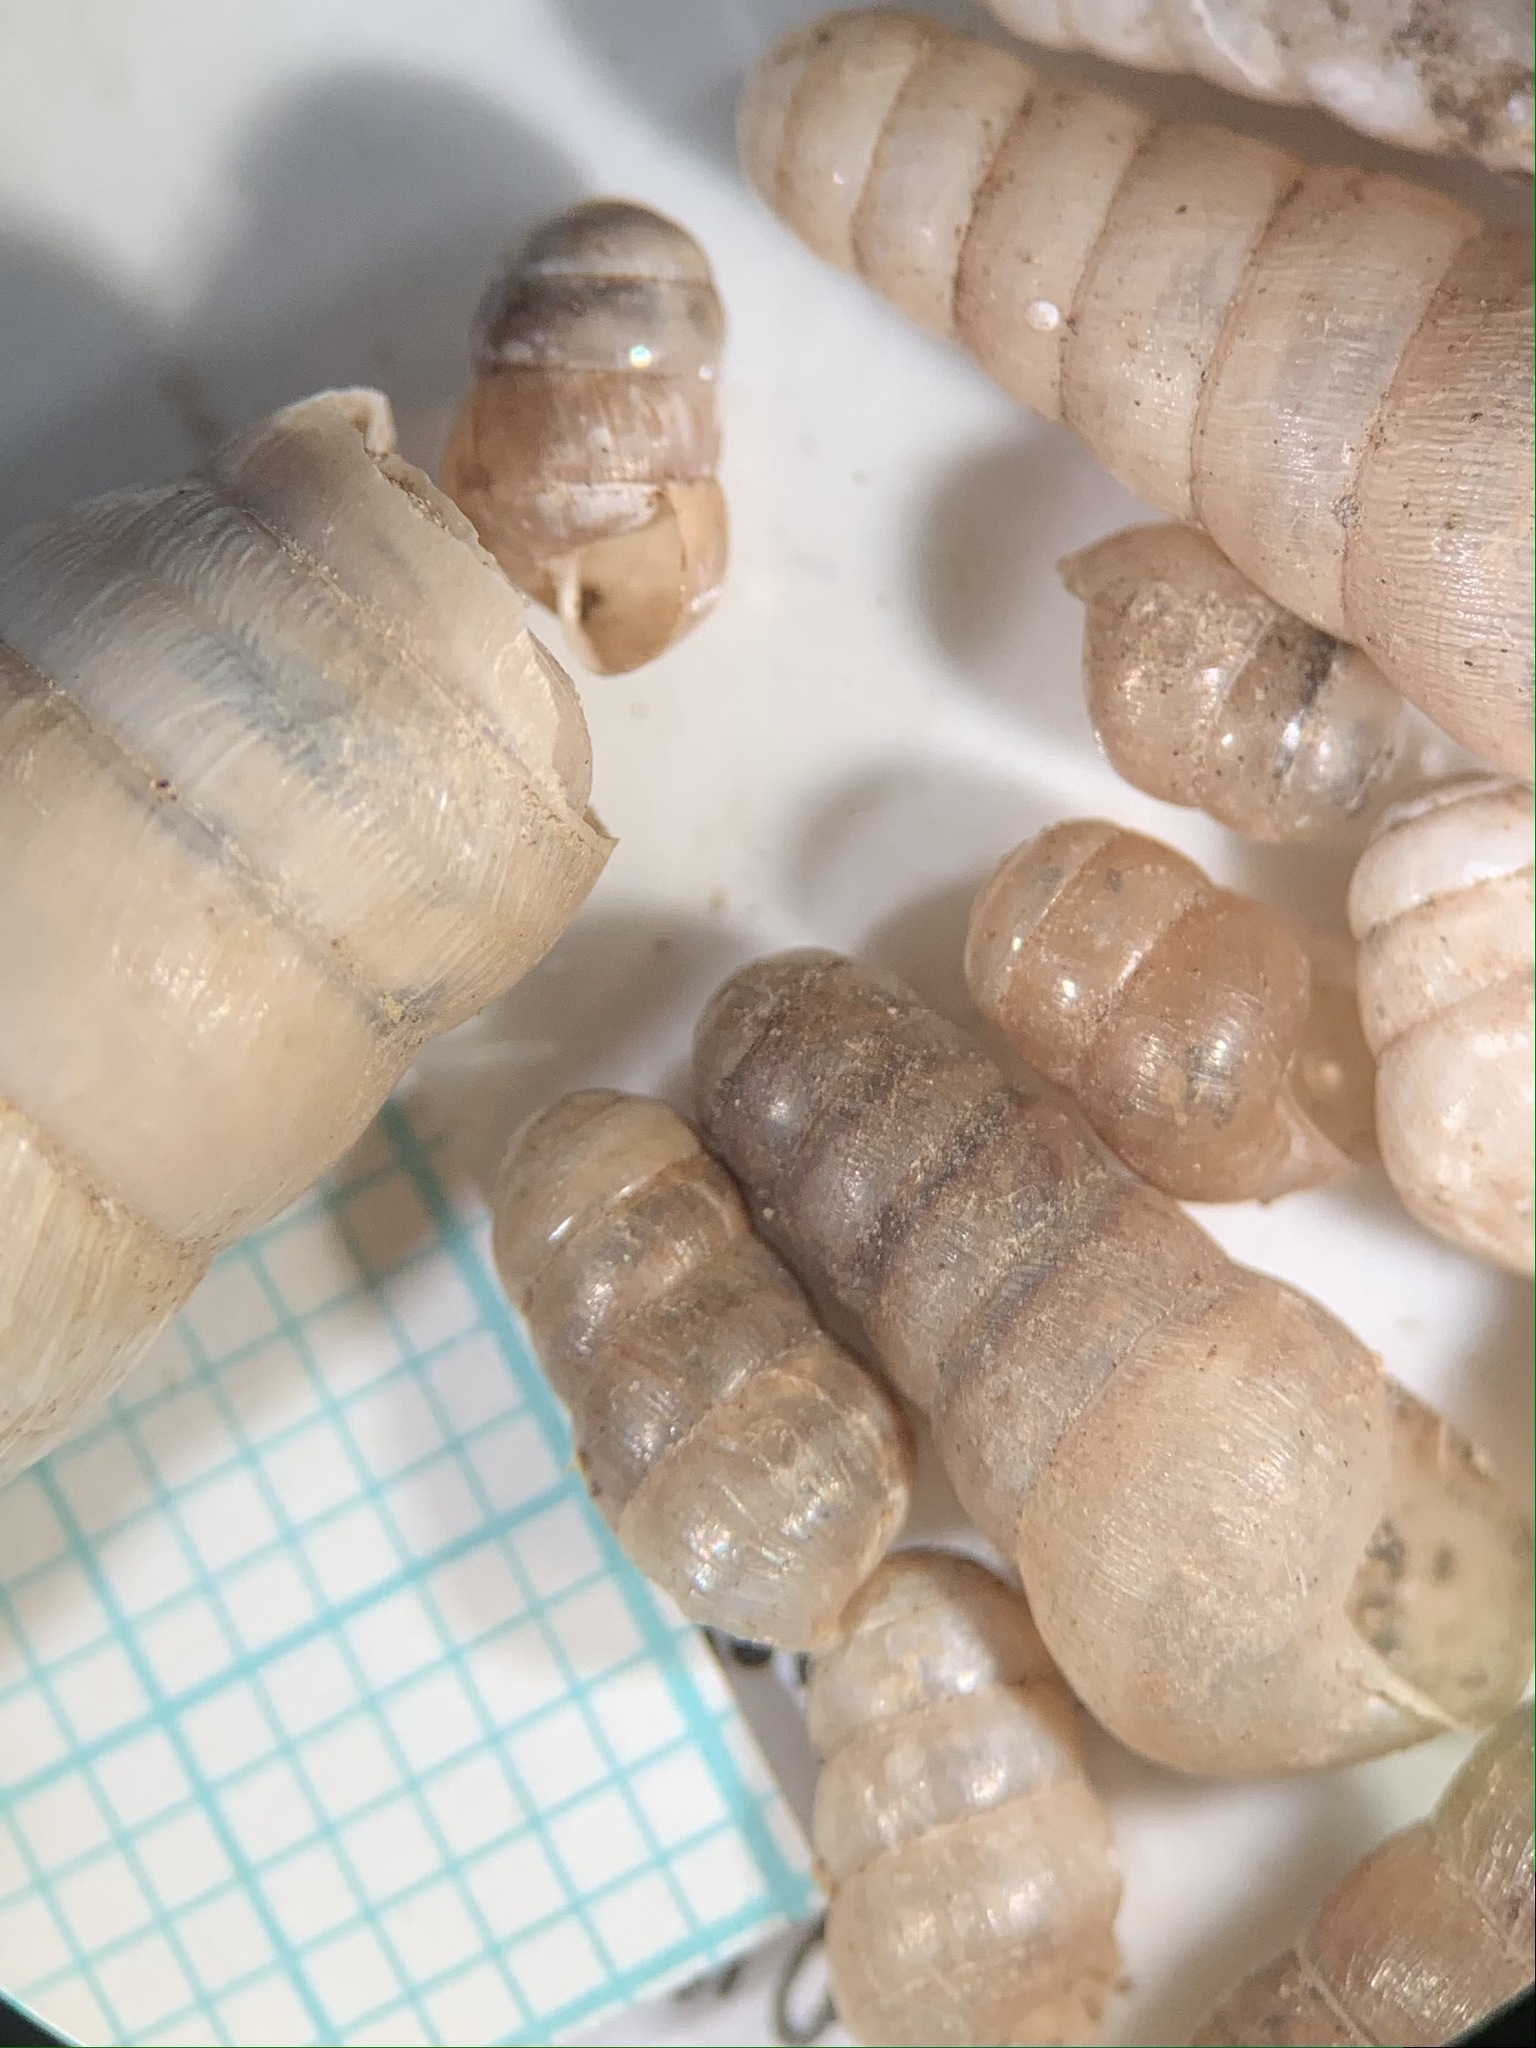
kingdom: Animalia
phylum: Mollusca
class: Gastropoda
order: Stylommatophora
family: Achatinidae
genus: Rumina
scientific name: Rumina decollata
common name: Decollate snail
